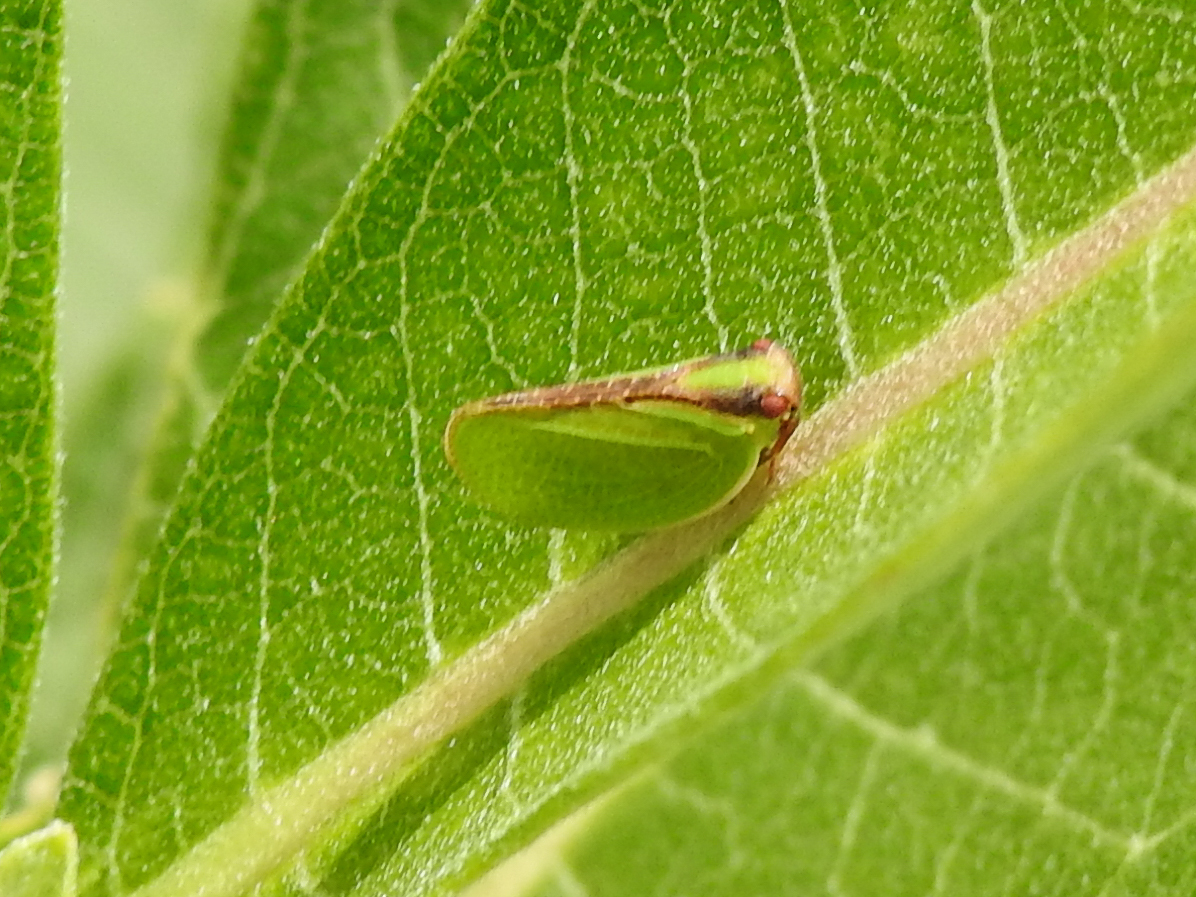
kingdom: Animalia
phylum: Arthropoda
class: Insecta
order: Hemiptera
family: Acanaloniidae
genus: Acanalonia
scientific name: Acanalonia bivittata
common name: Two-striped planthopper
